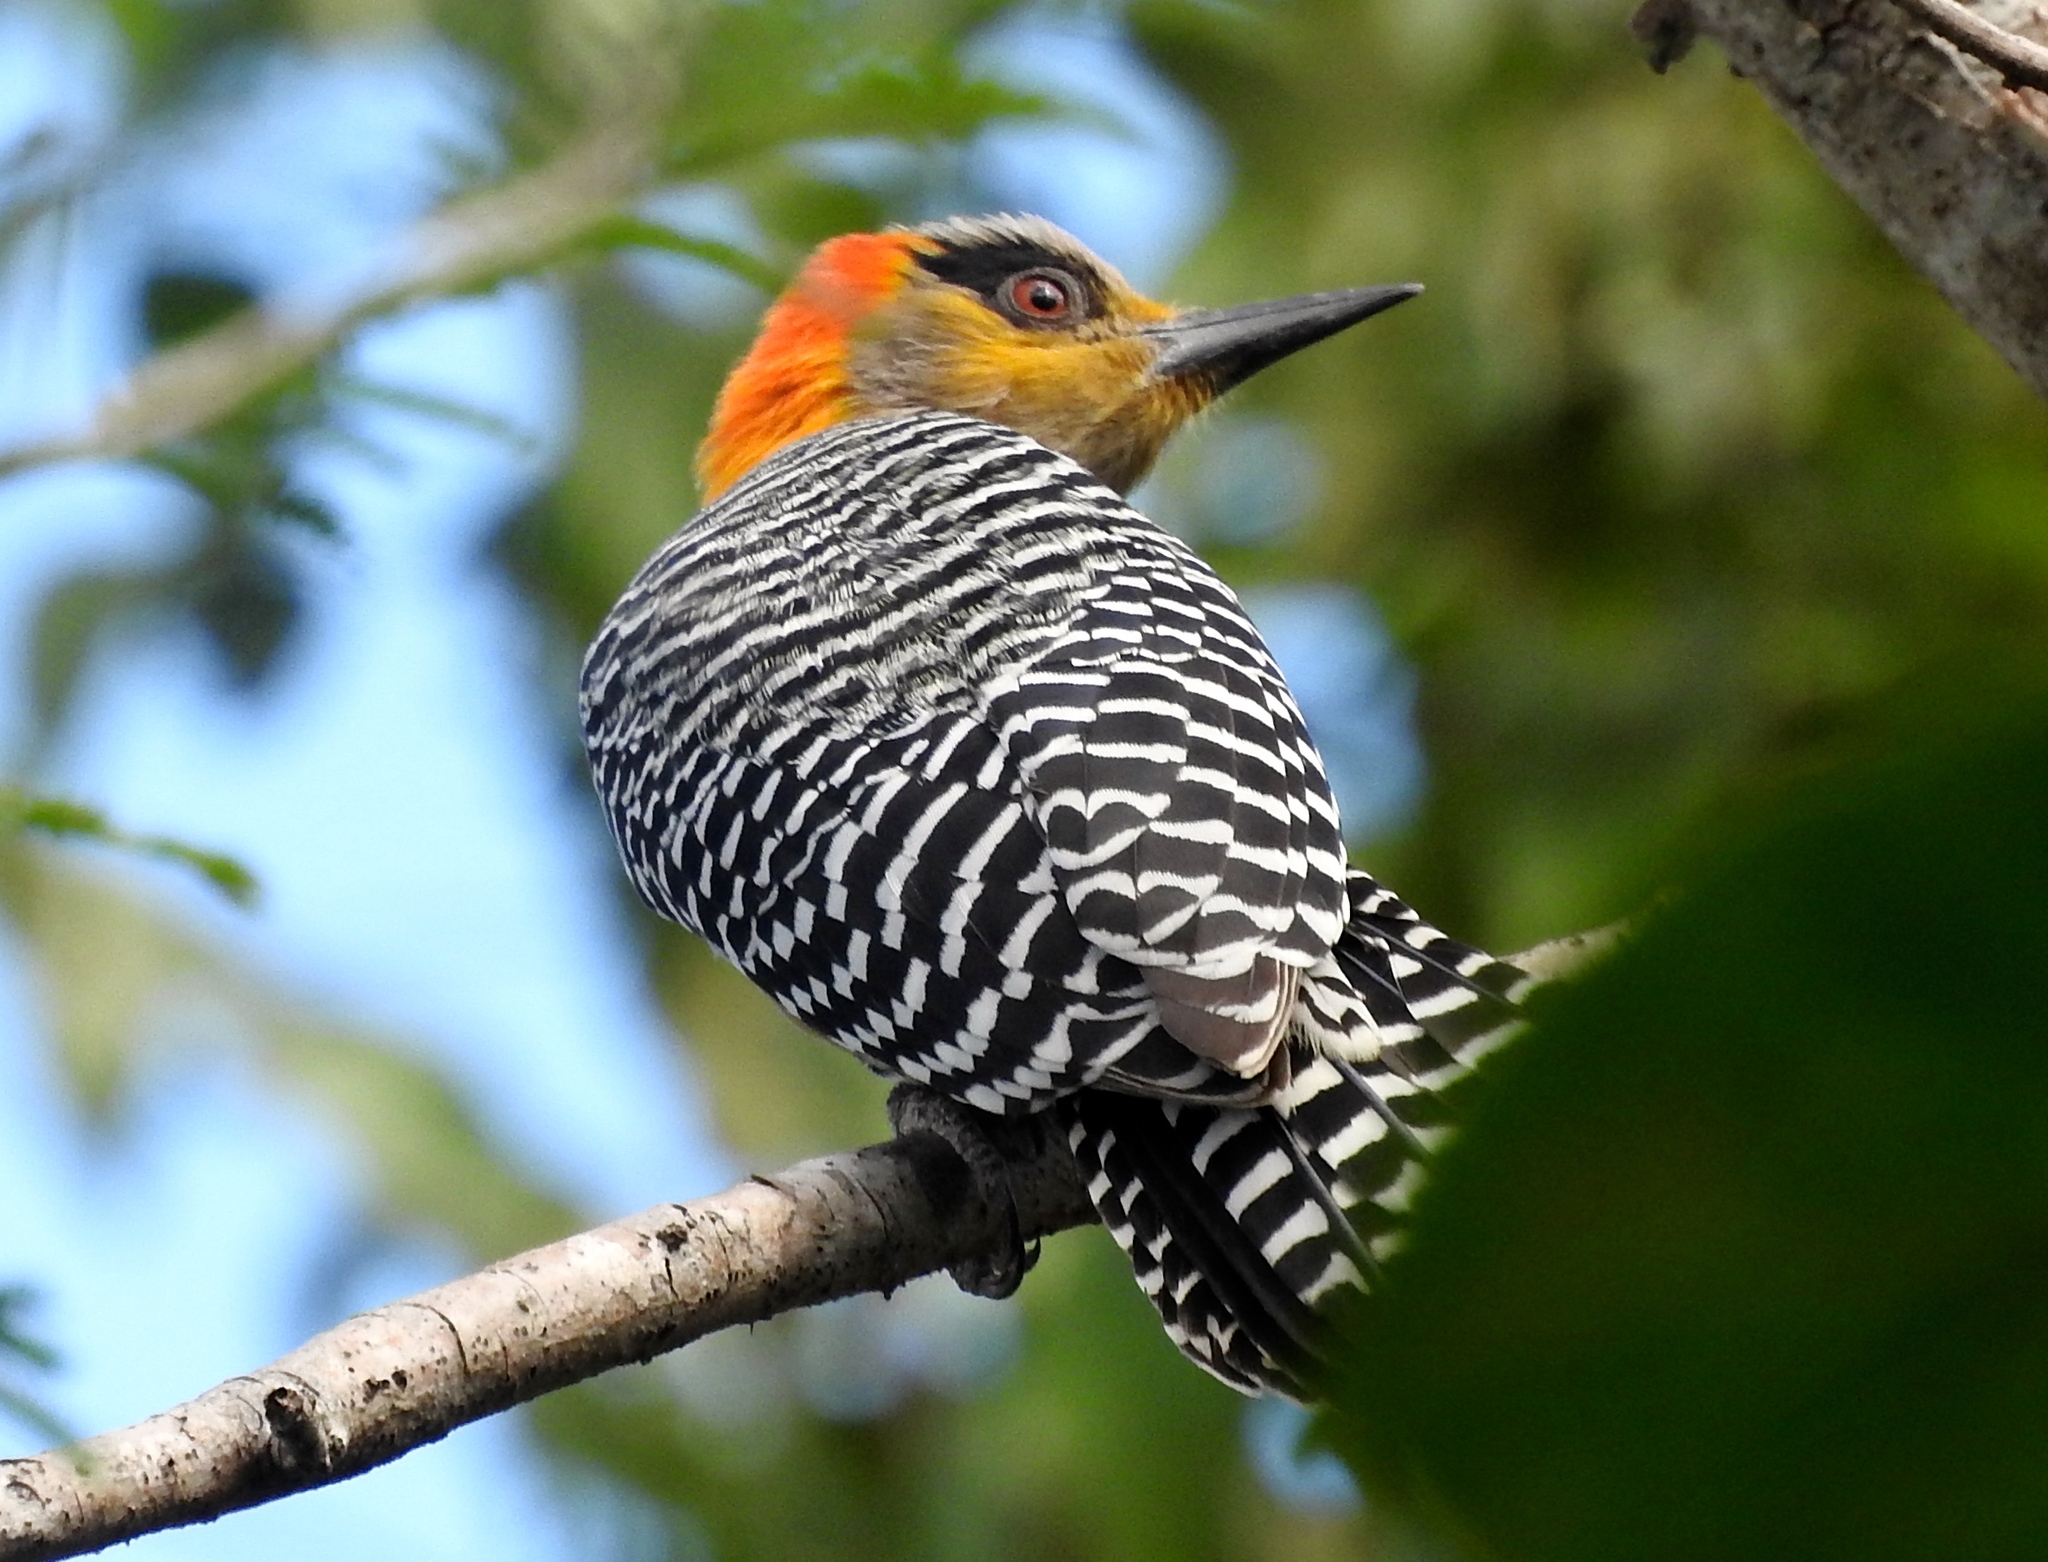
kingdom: Animalia
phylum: Chordata
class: Aves
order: Piciformes
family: Picidae
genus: Melanerpes
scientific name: Melanerpes chrysogenys
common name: Golden-cheeked woodpecker
